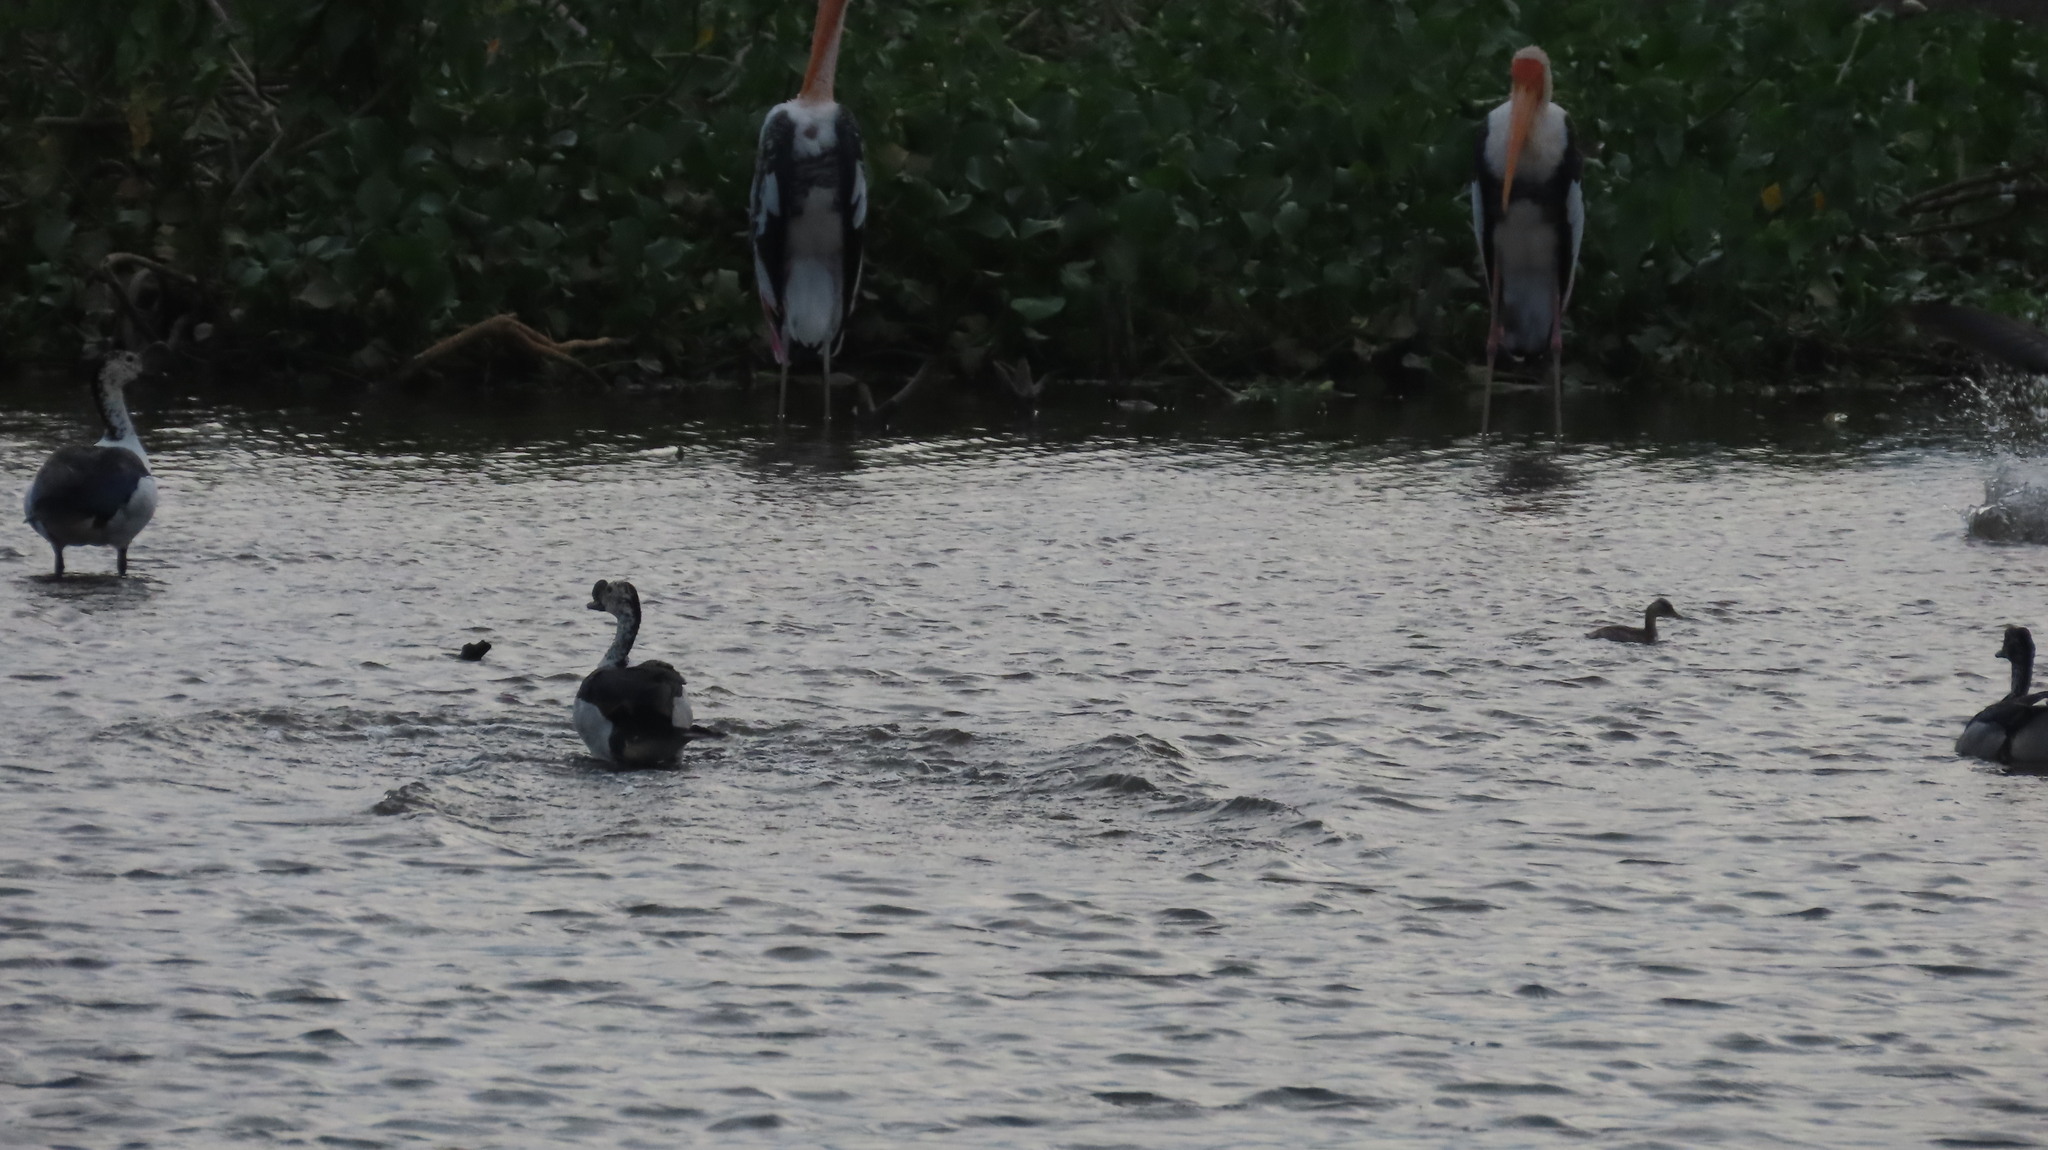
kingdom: Animalia
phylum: Chordata
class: Aves
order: Anseriformes
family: Anatidae
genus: Sarkidiornis
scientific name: Sarkidiornis melanotos
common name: Comb duck
